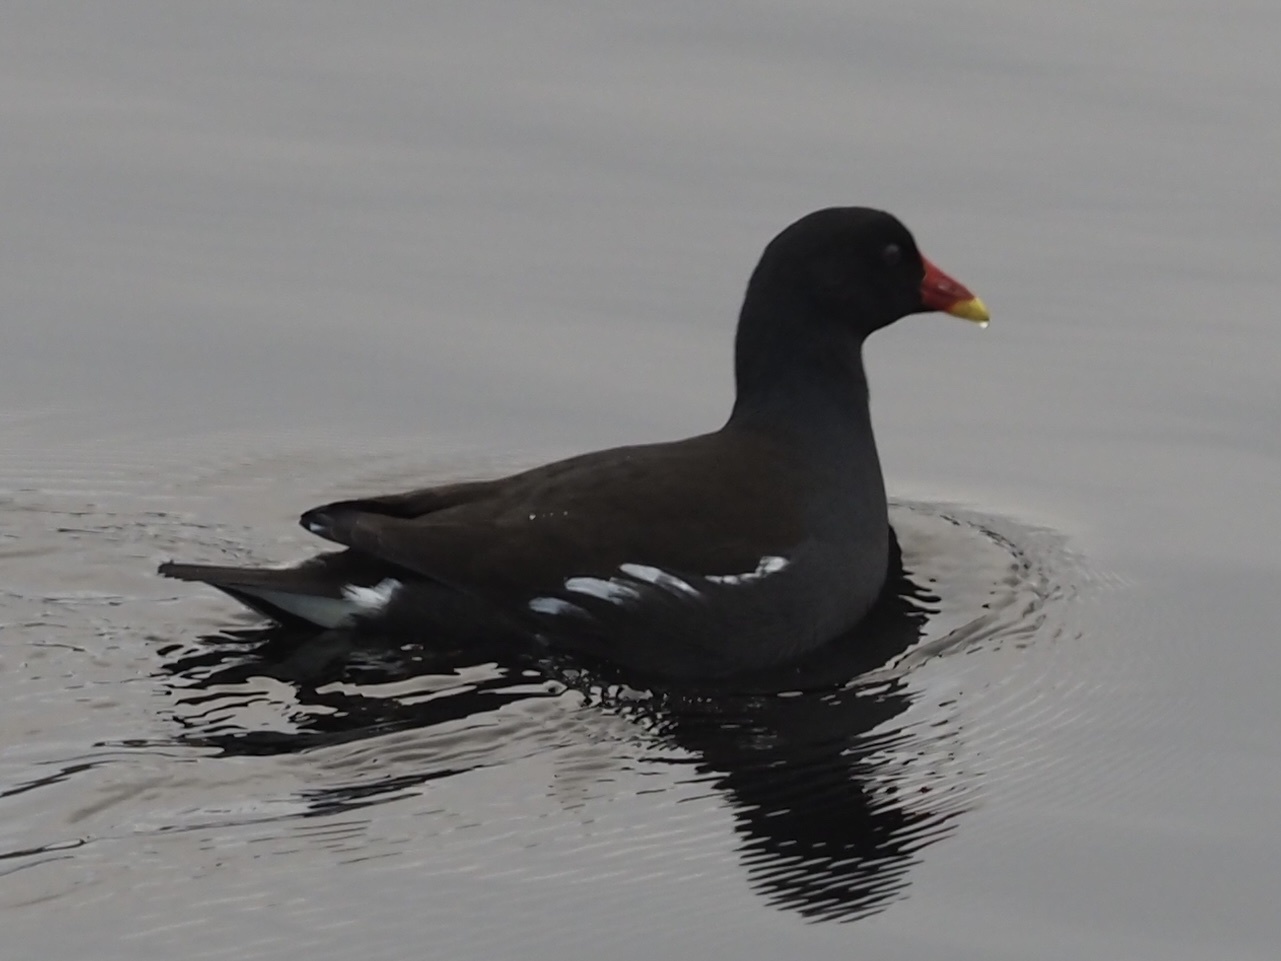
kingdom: Animalia
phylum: Chordata
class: Aves
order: Gruiformes
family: Rallidae
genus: Gallinula
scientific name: Gallinula chloropus
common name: Common moorhen
